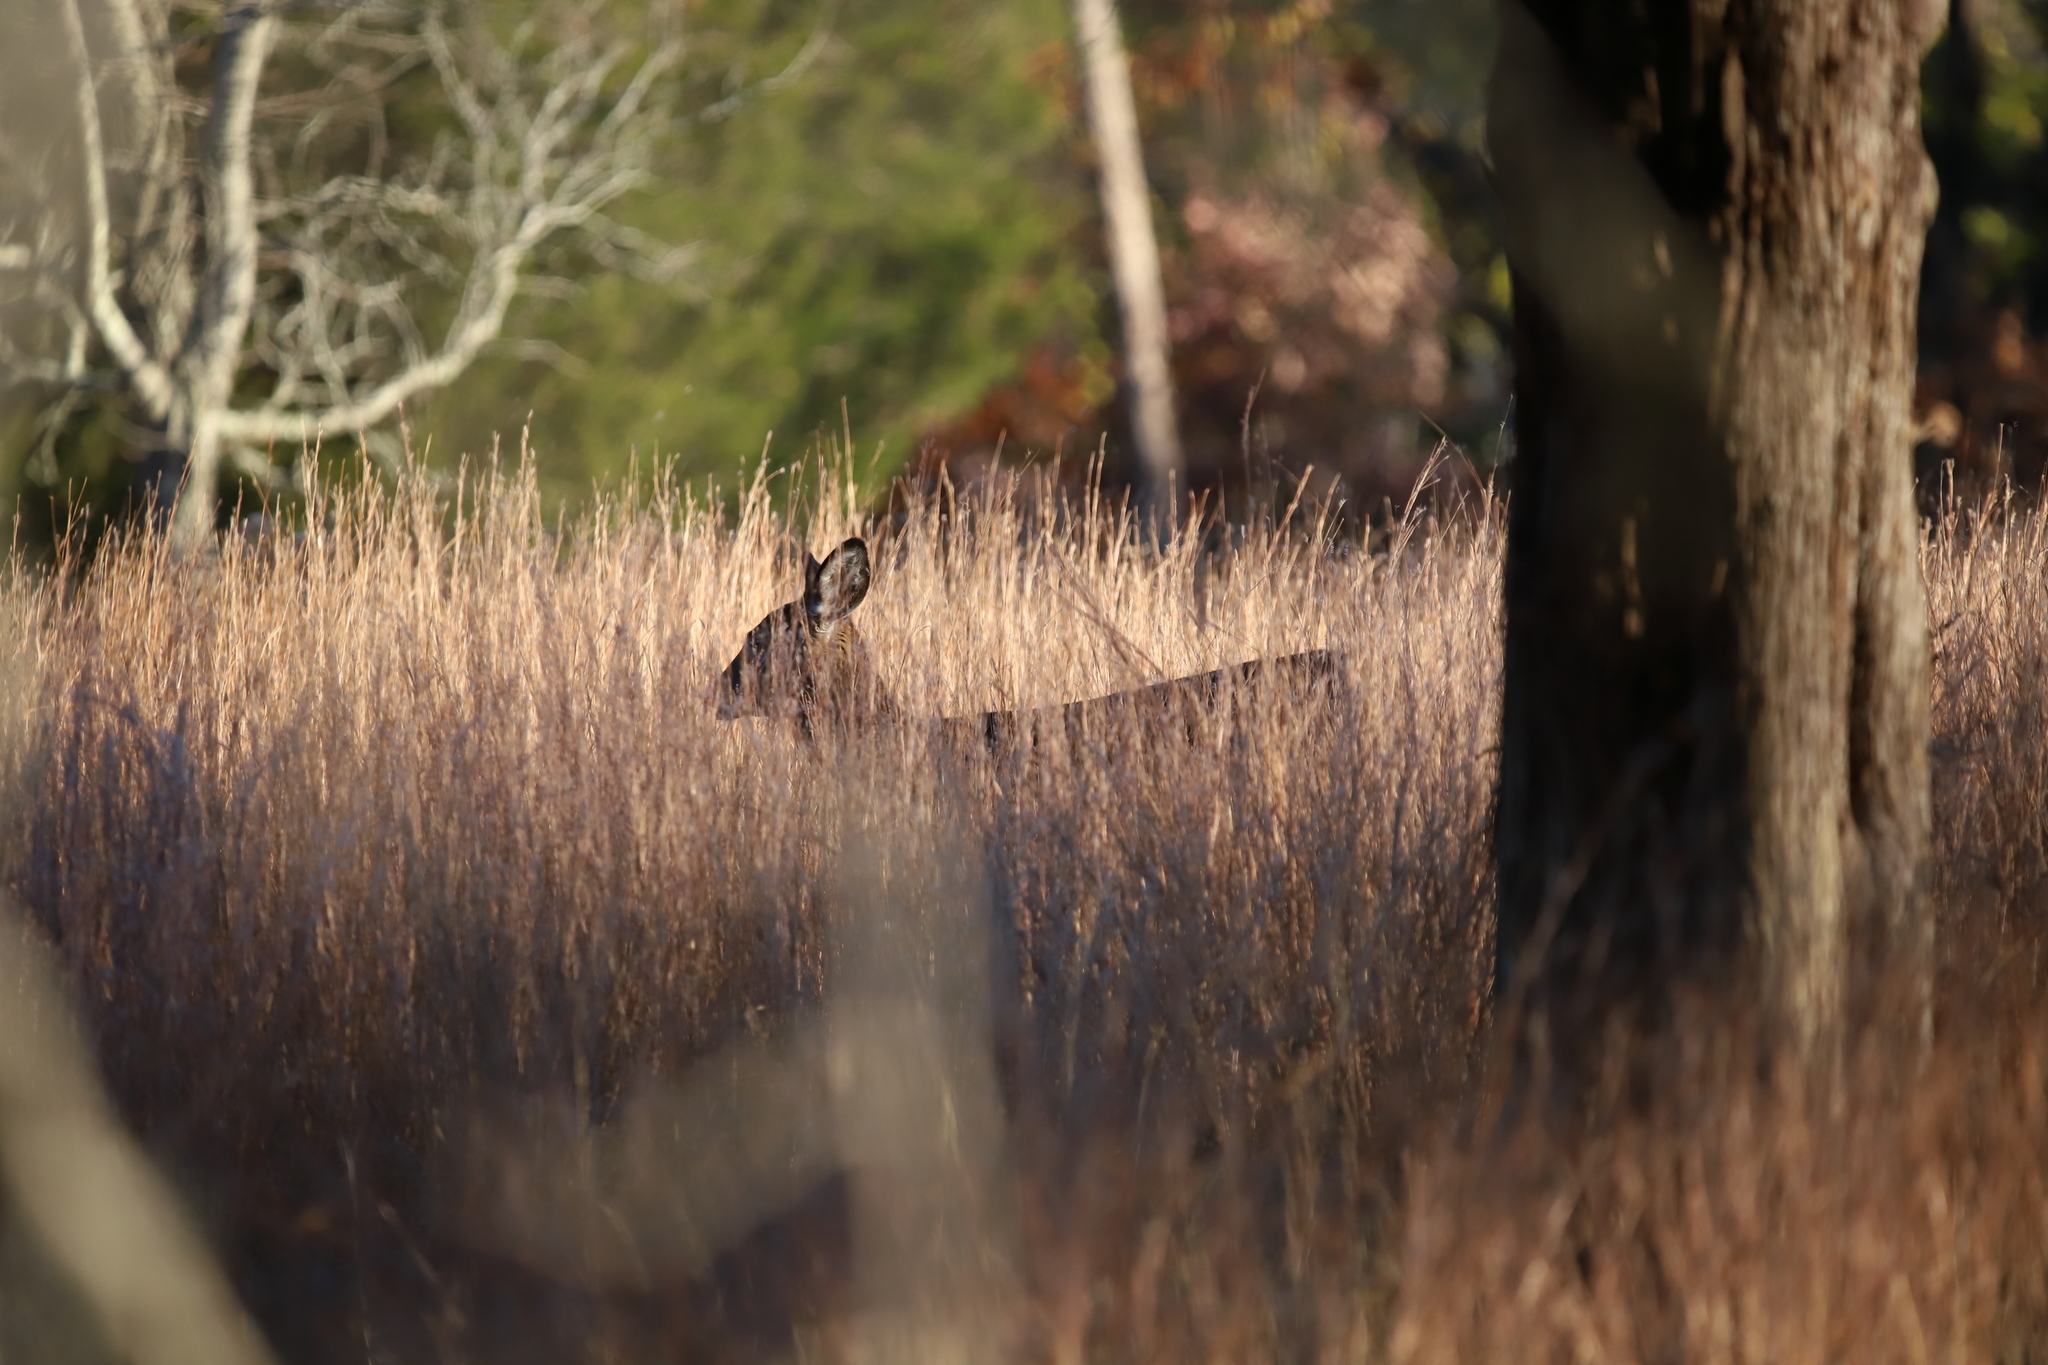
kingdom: Animalia
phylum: Chordata
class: Mammalia
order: Artiodactyla
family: Cervidae
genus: Odocoileus
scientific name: Odocoileus virginianus
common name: White-tailed deer
